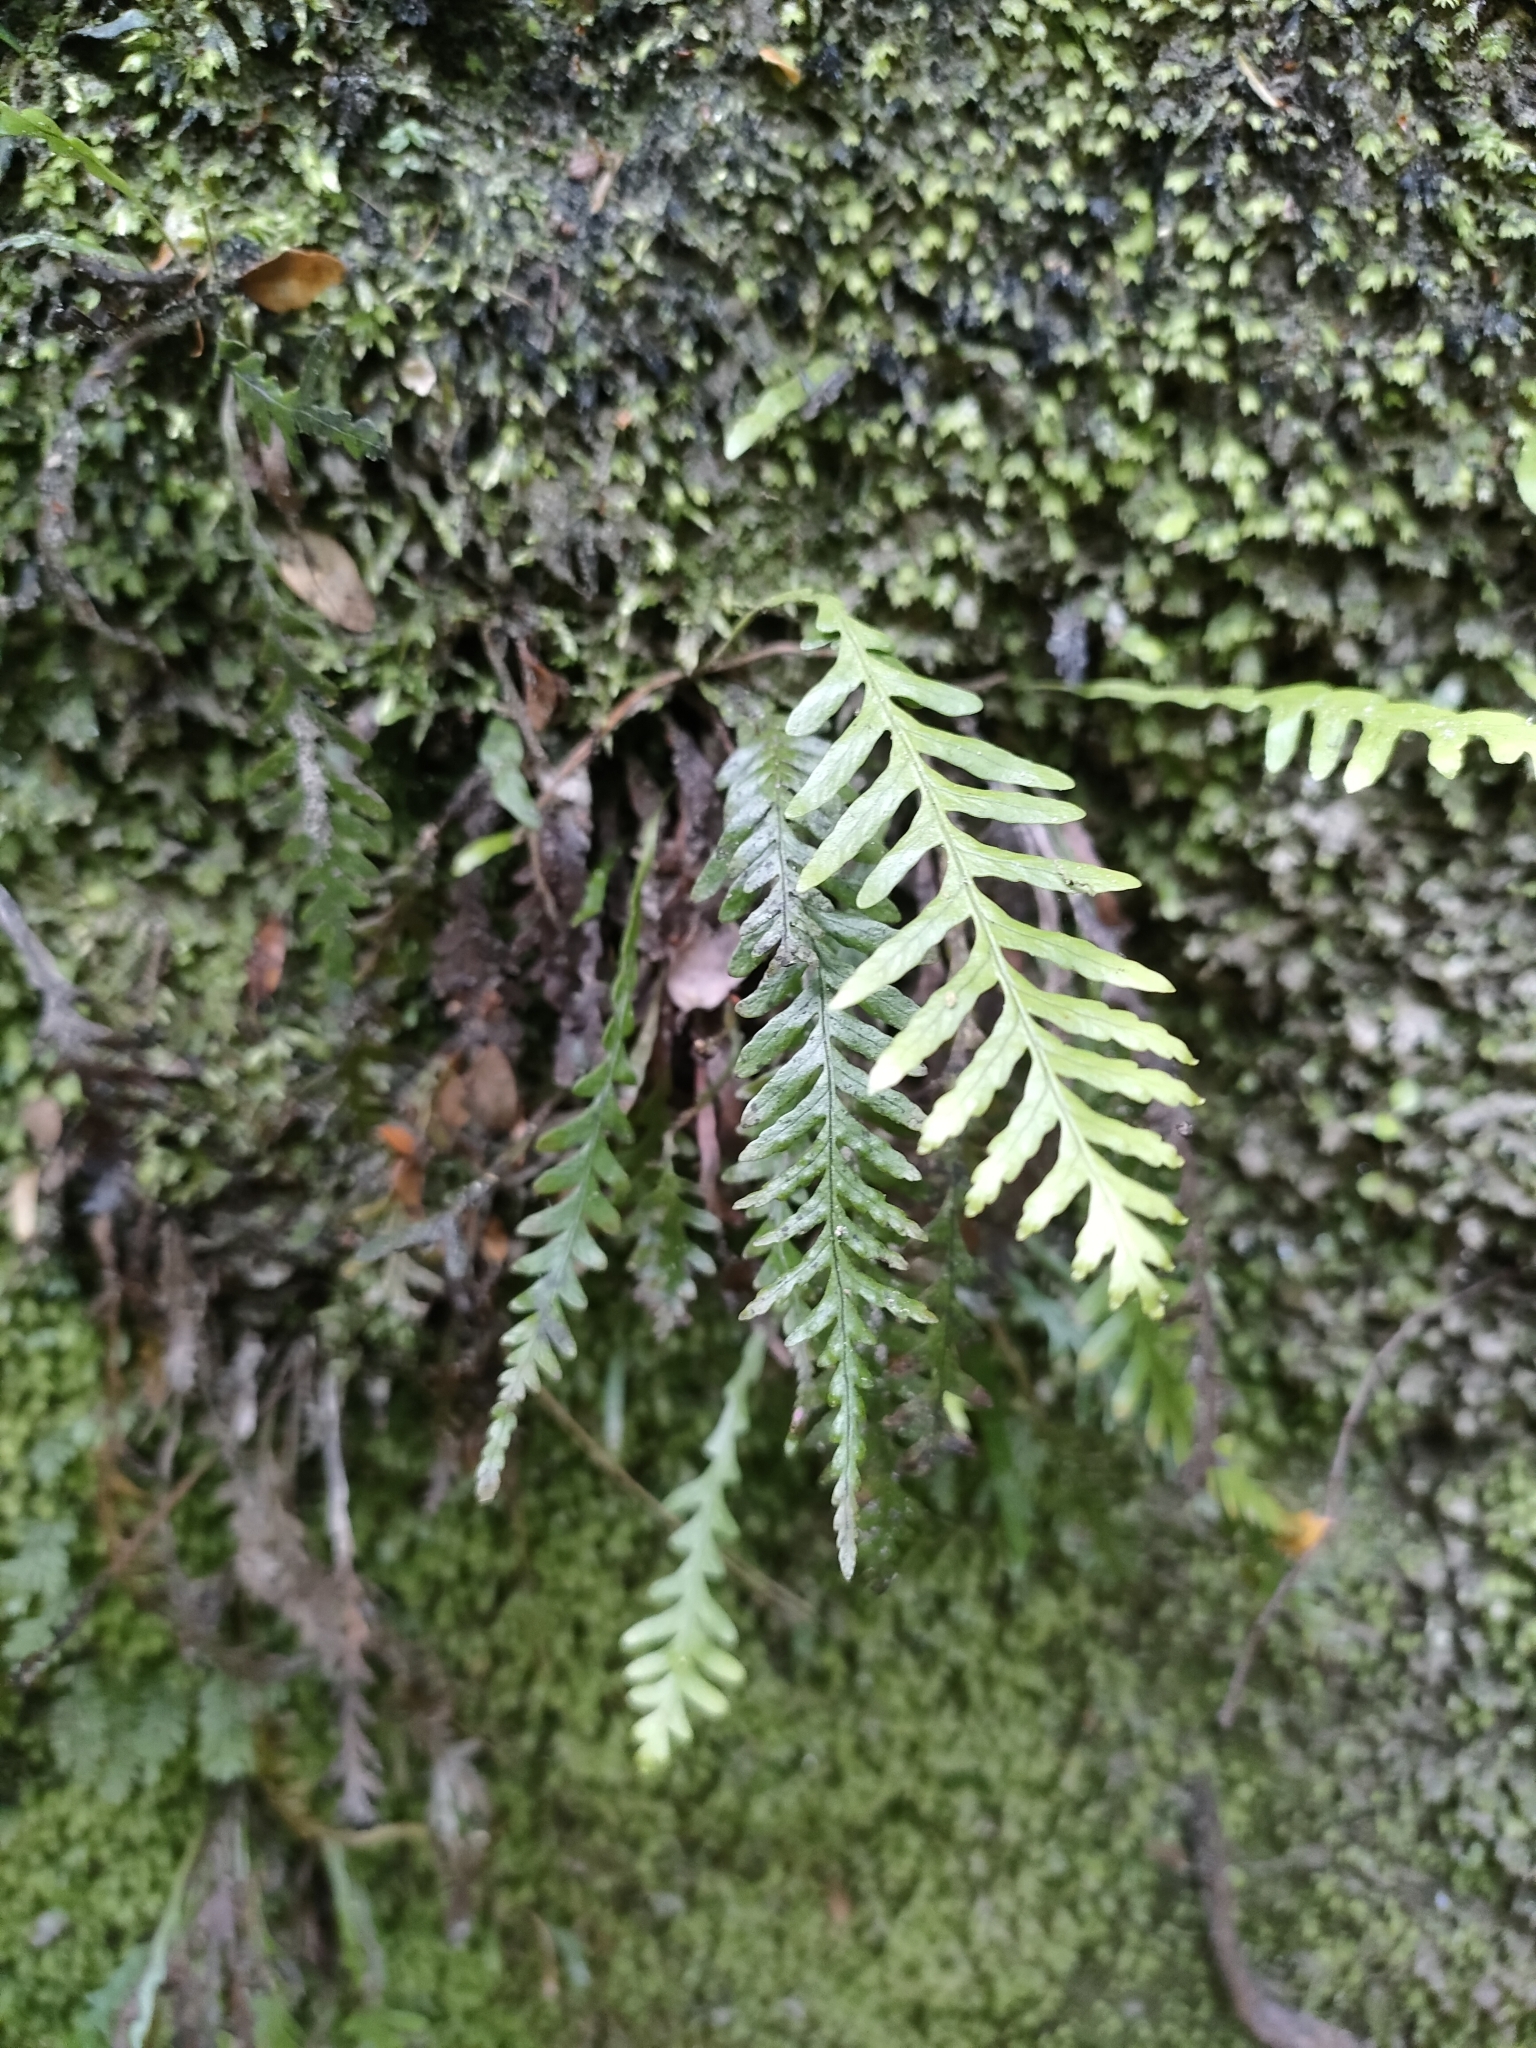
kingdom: Plantae
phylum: Tracheophyta
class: Polypodiopsida
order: Polypodiales
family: Polypodiaceae
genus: Notogrammitis
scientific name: Notogrammitis heterophylla
